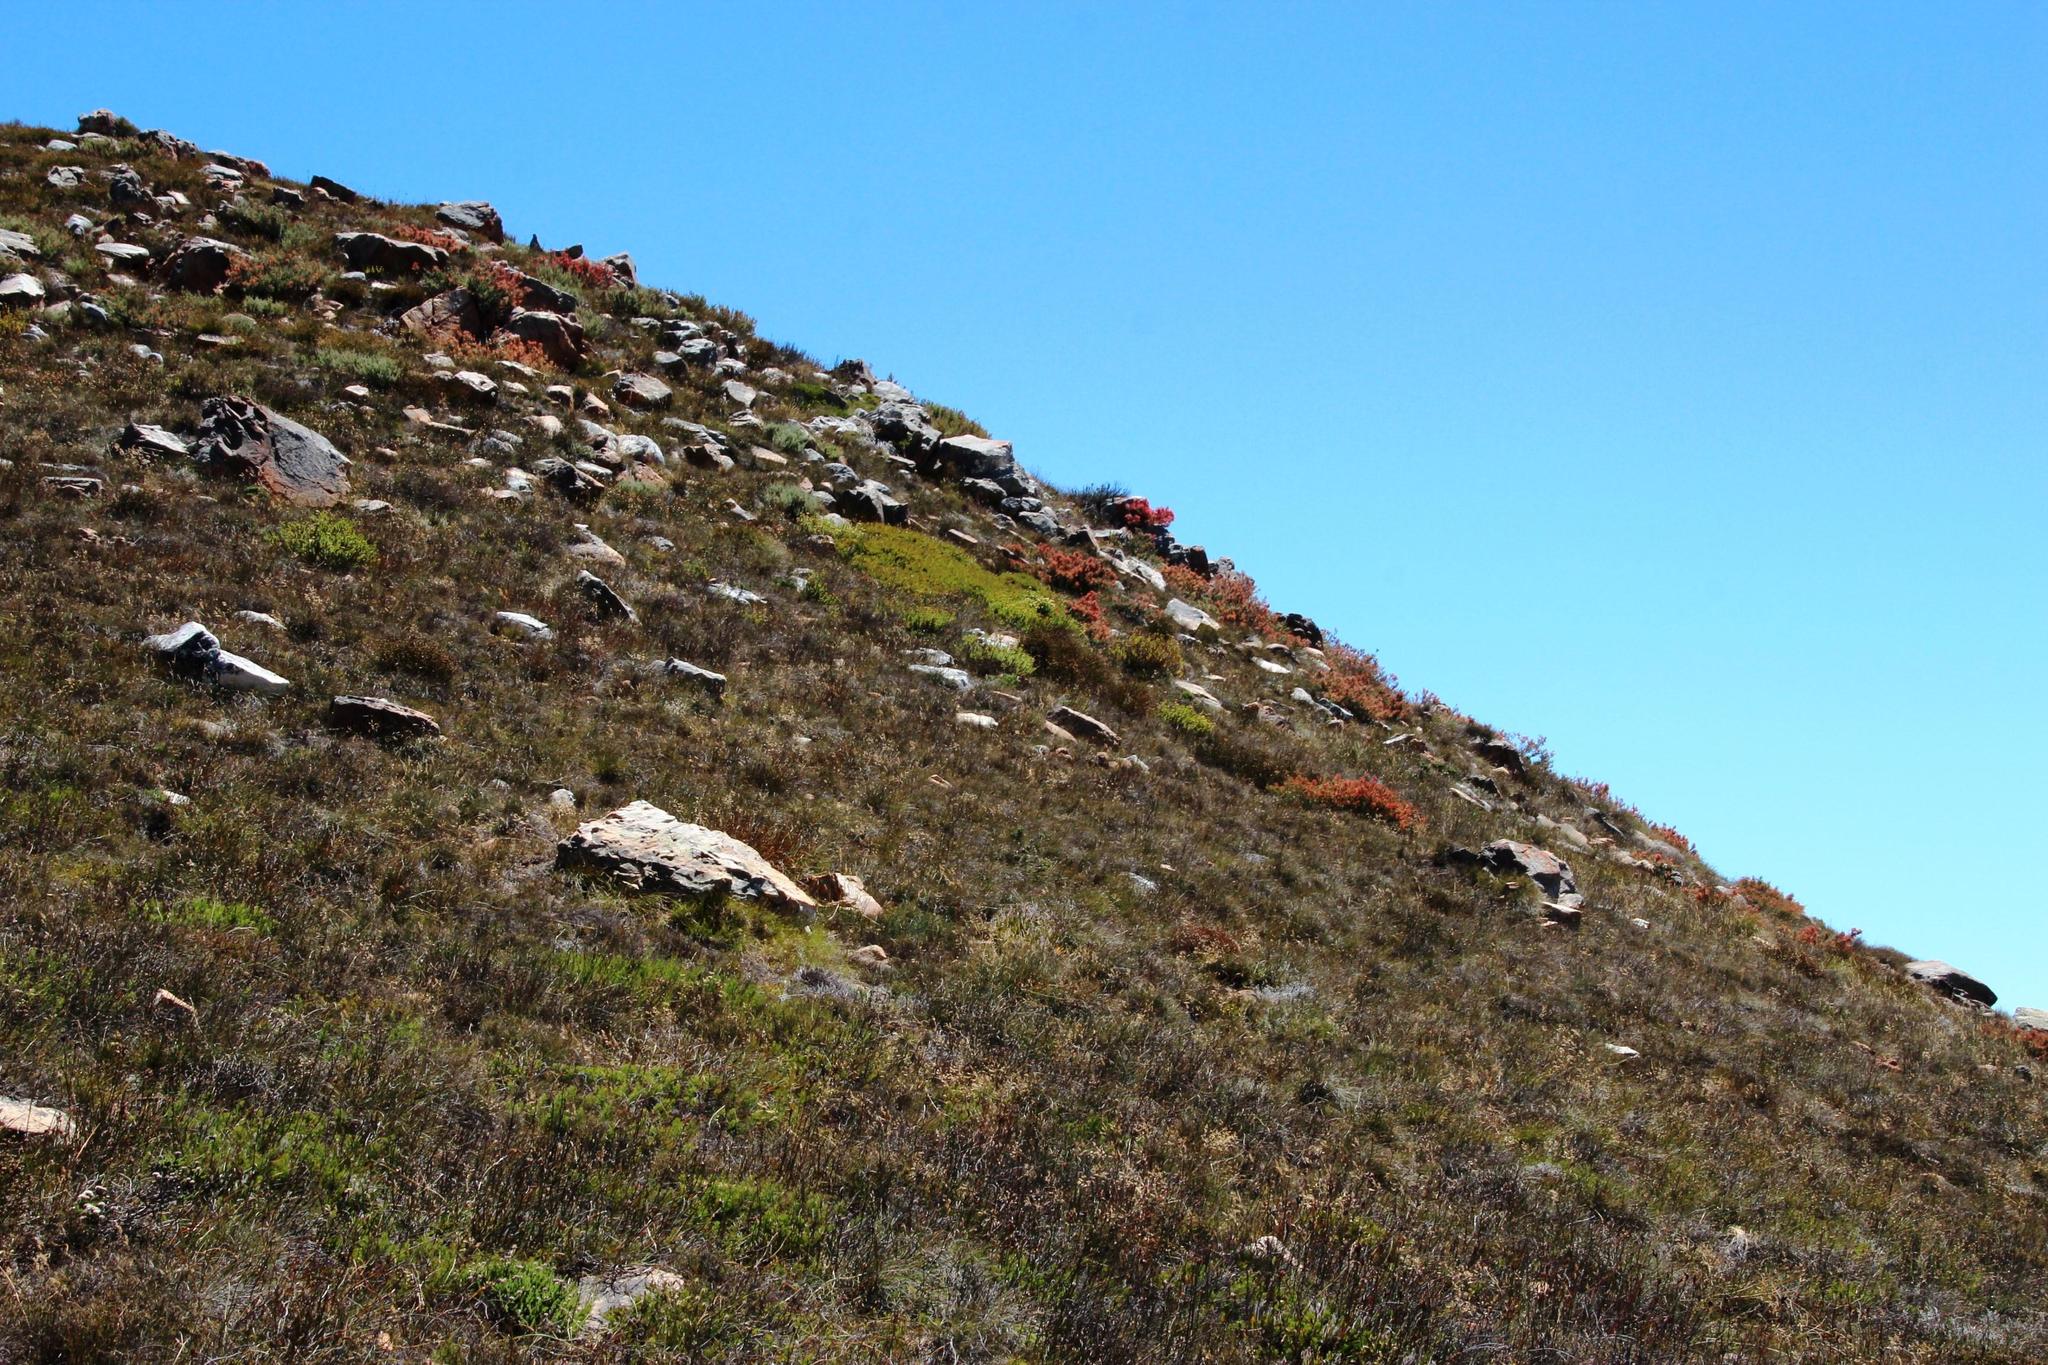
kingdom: Plantae
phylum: Tracheophyta
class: Magnoliopsida
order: Proteales
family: Proteaceae
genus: Protea
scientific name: Protea effusa
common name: Scarlet sugarbush
